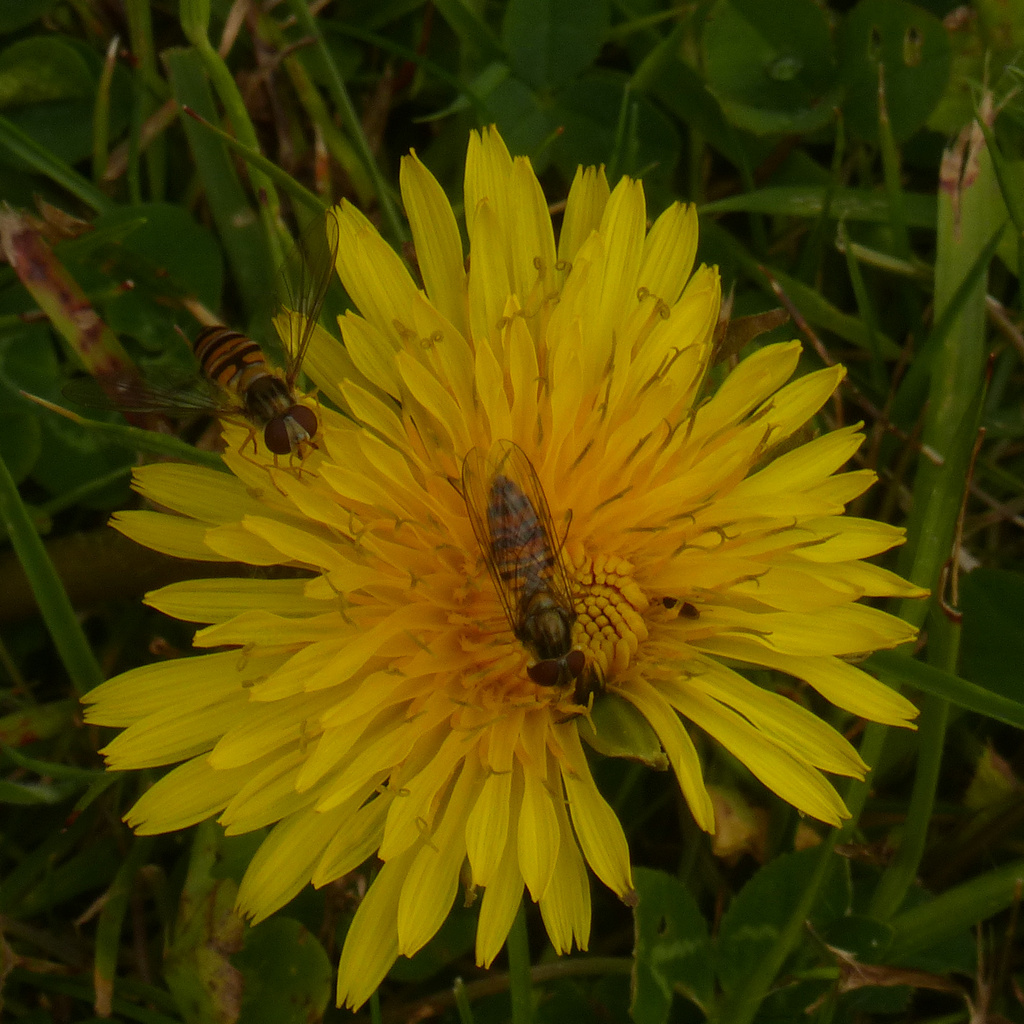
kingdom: Animalia
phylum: Arthropoda
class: Insecta
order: Diptera
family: Syrphidae
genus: Episyrphus
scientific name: Episyrphus balteatus
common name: Marmalade hoverfly
